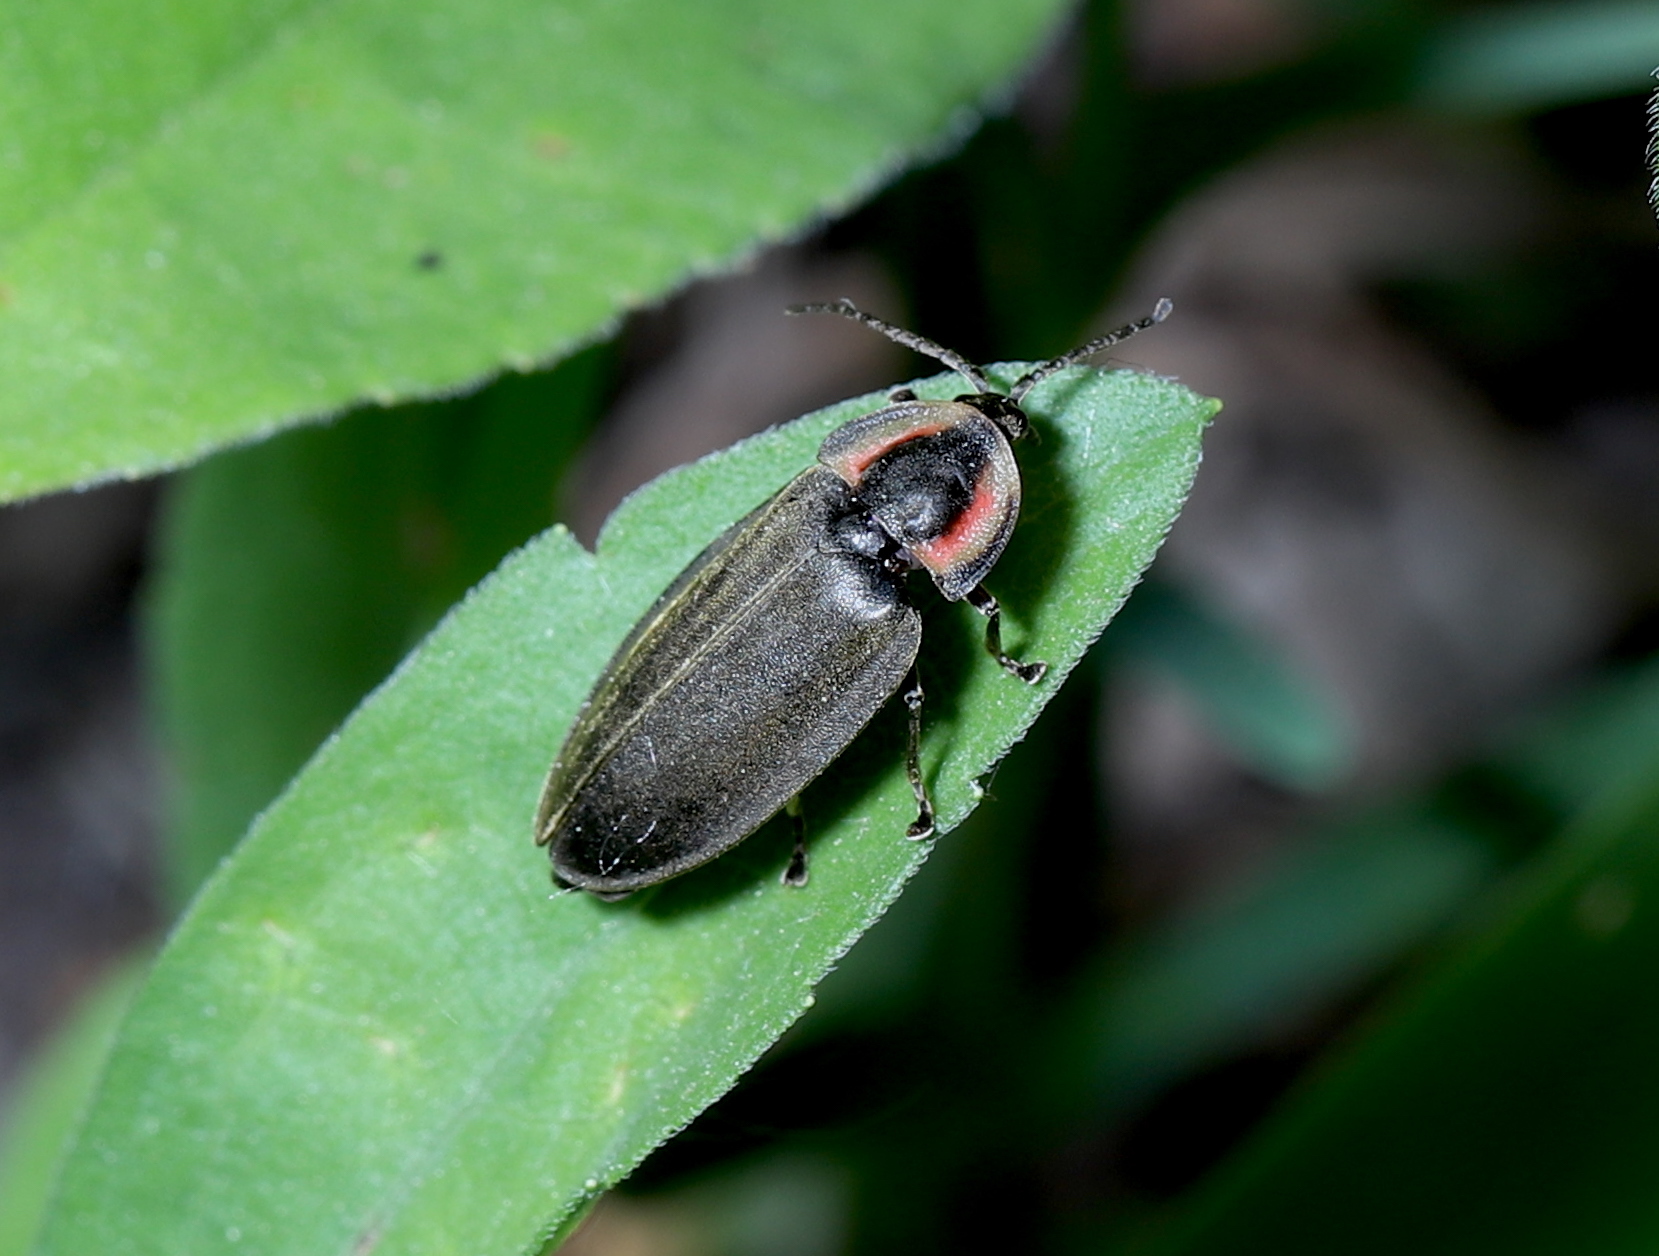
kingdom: Animalia
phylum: Arthropoda
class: Insecta
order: Coleoptera
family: Lampyridae
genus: Photinus
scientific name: Photinus corrusca
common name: Winter firefly
